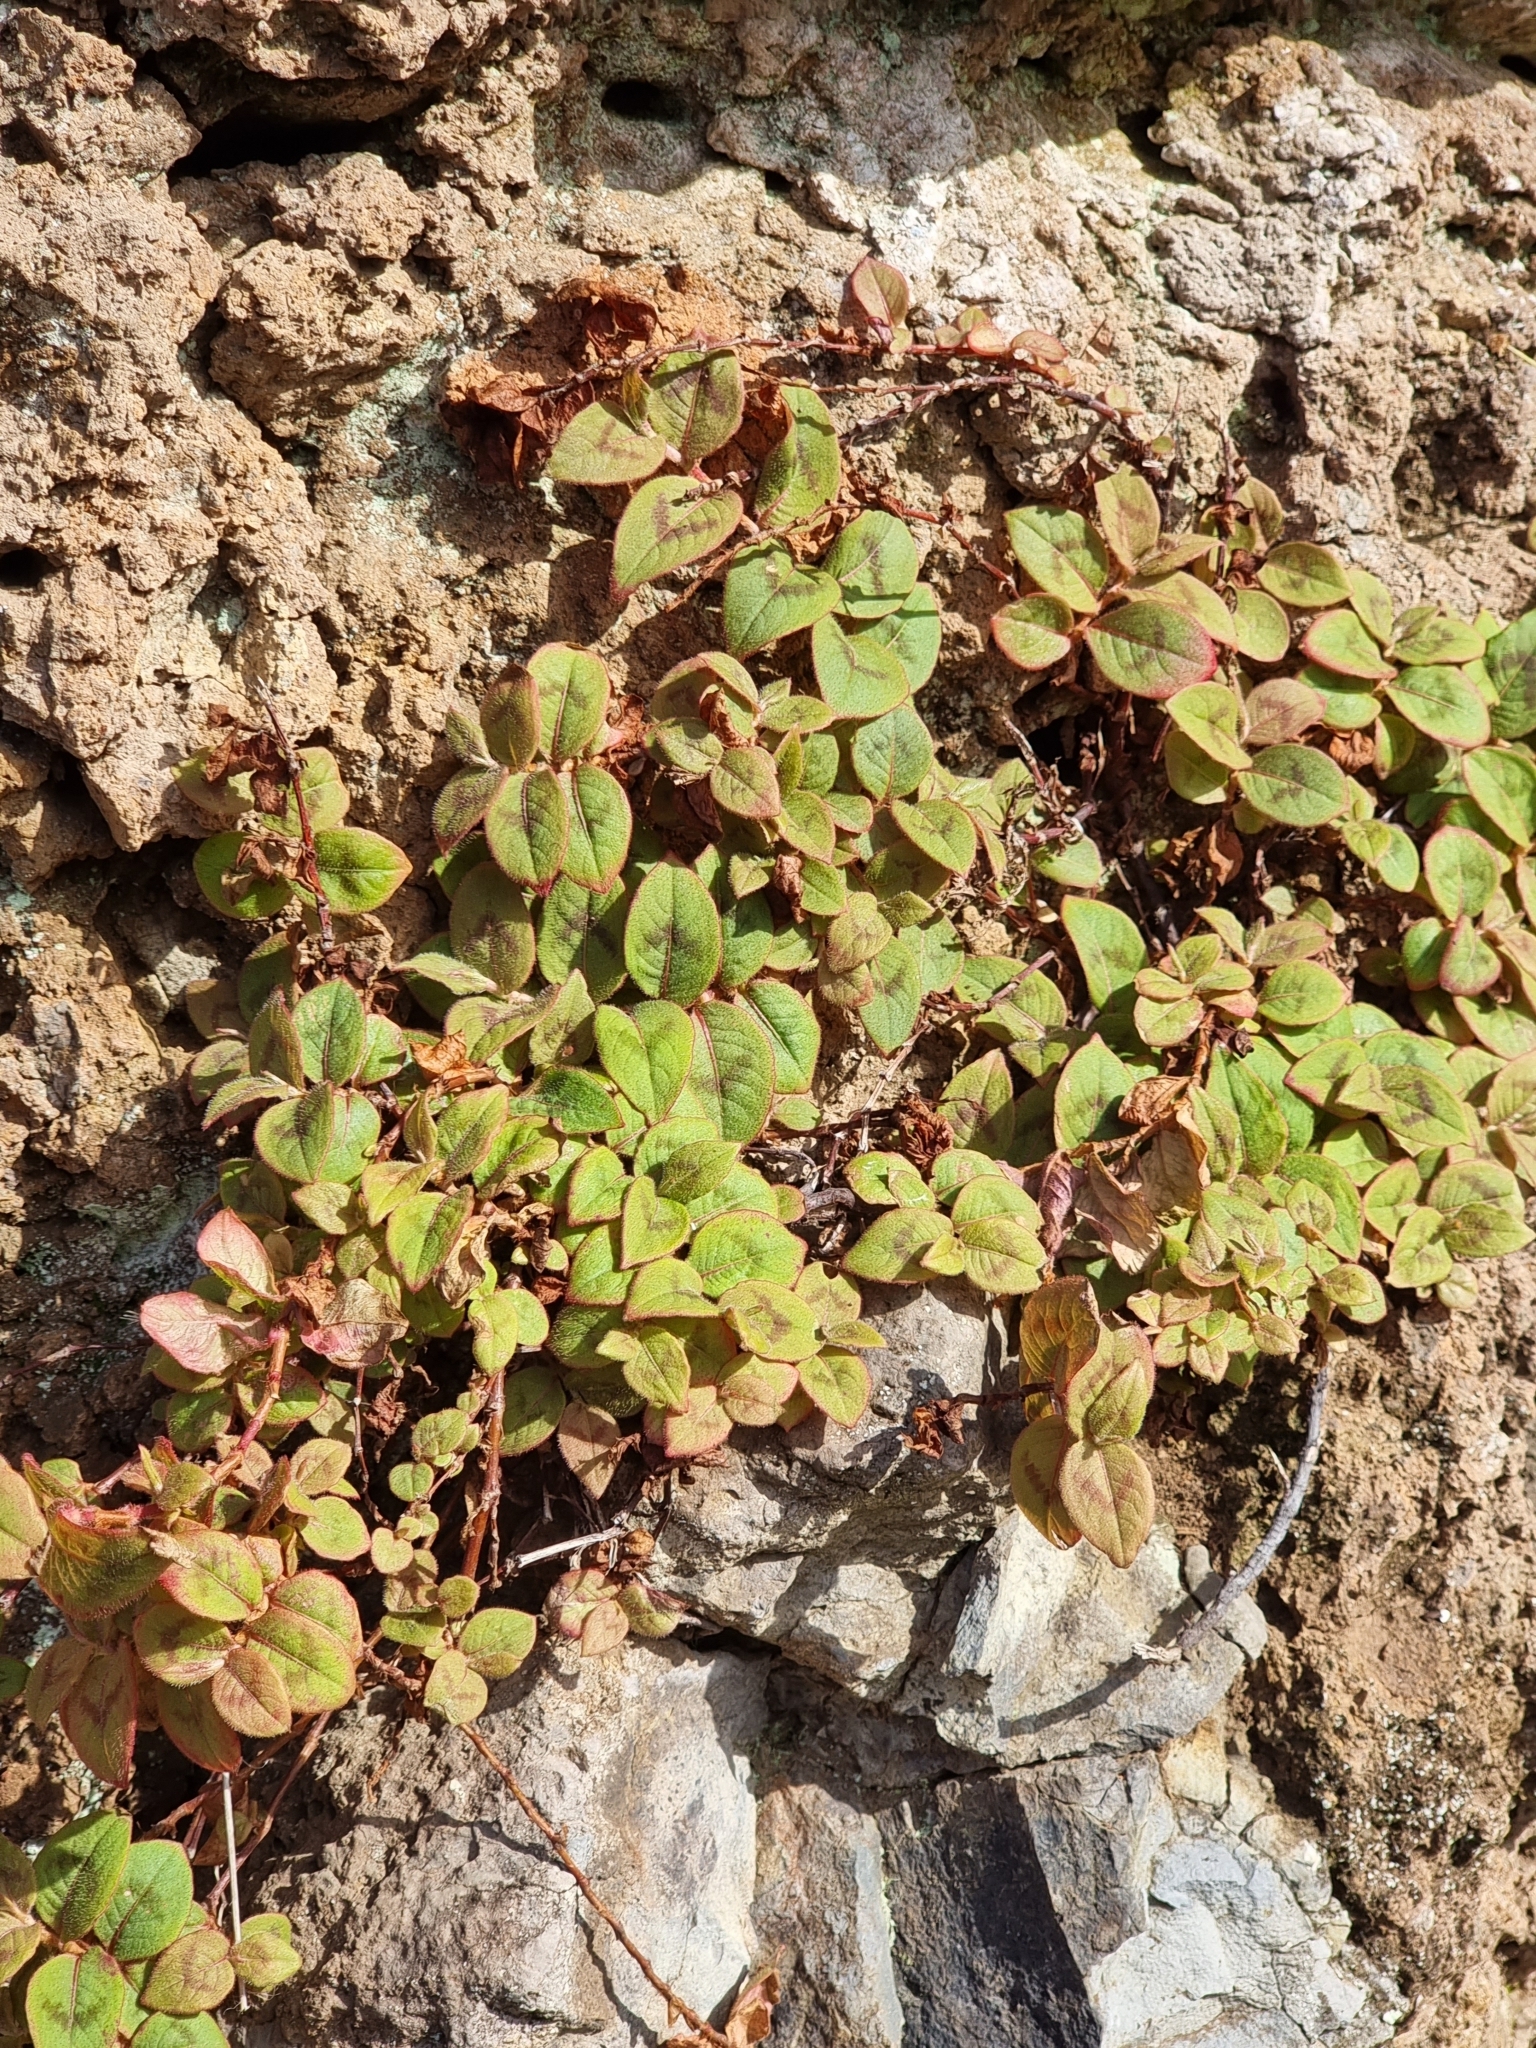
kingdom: Plantae
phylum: Tracheophyta
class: Magnoliopsida
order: Caryophyllales
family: Polygonaceae
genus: Persicaria
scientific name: Persicaria capitata
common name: Pinkhead smartweed
